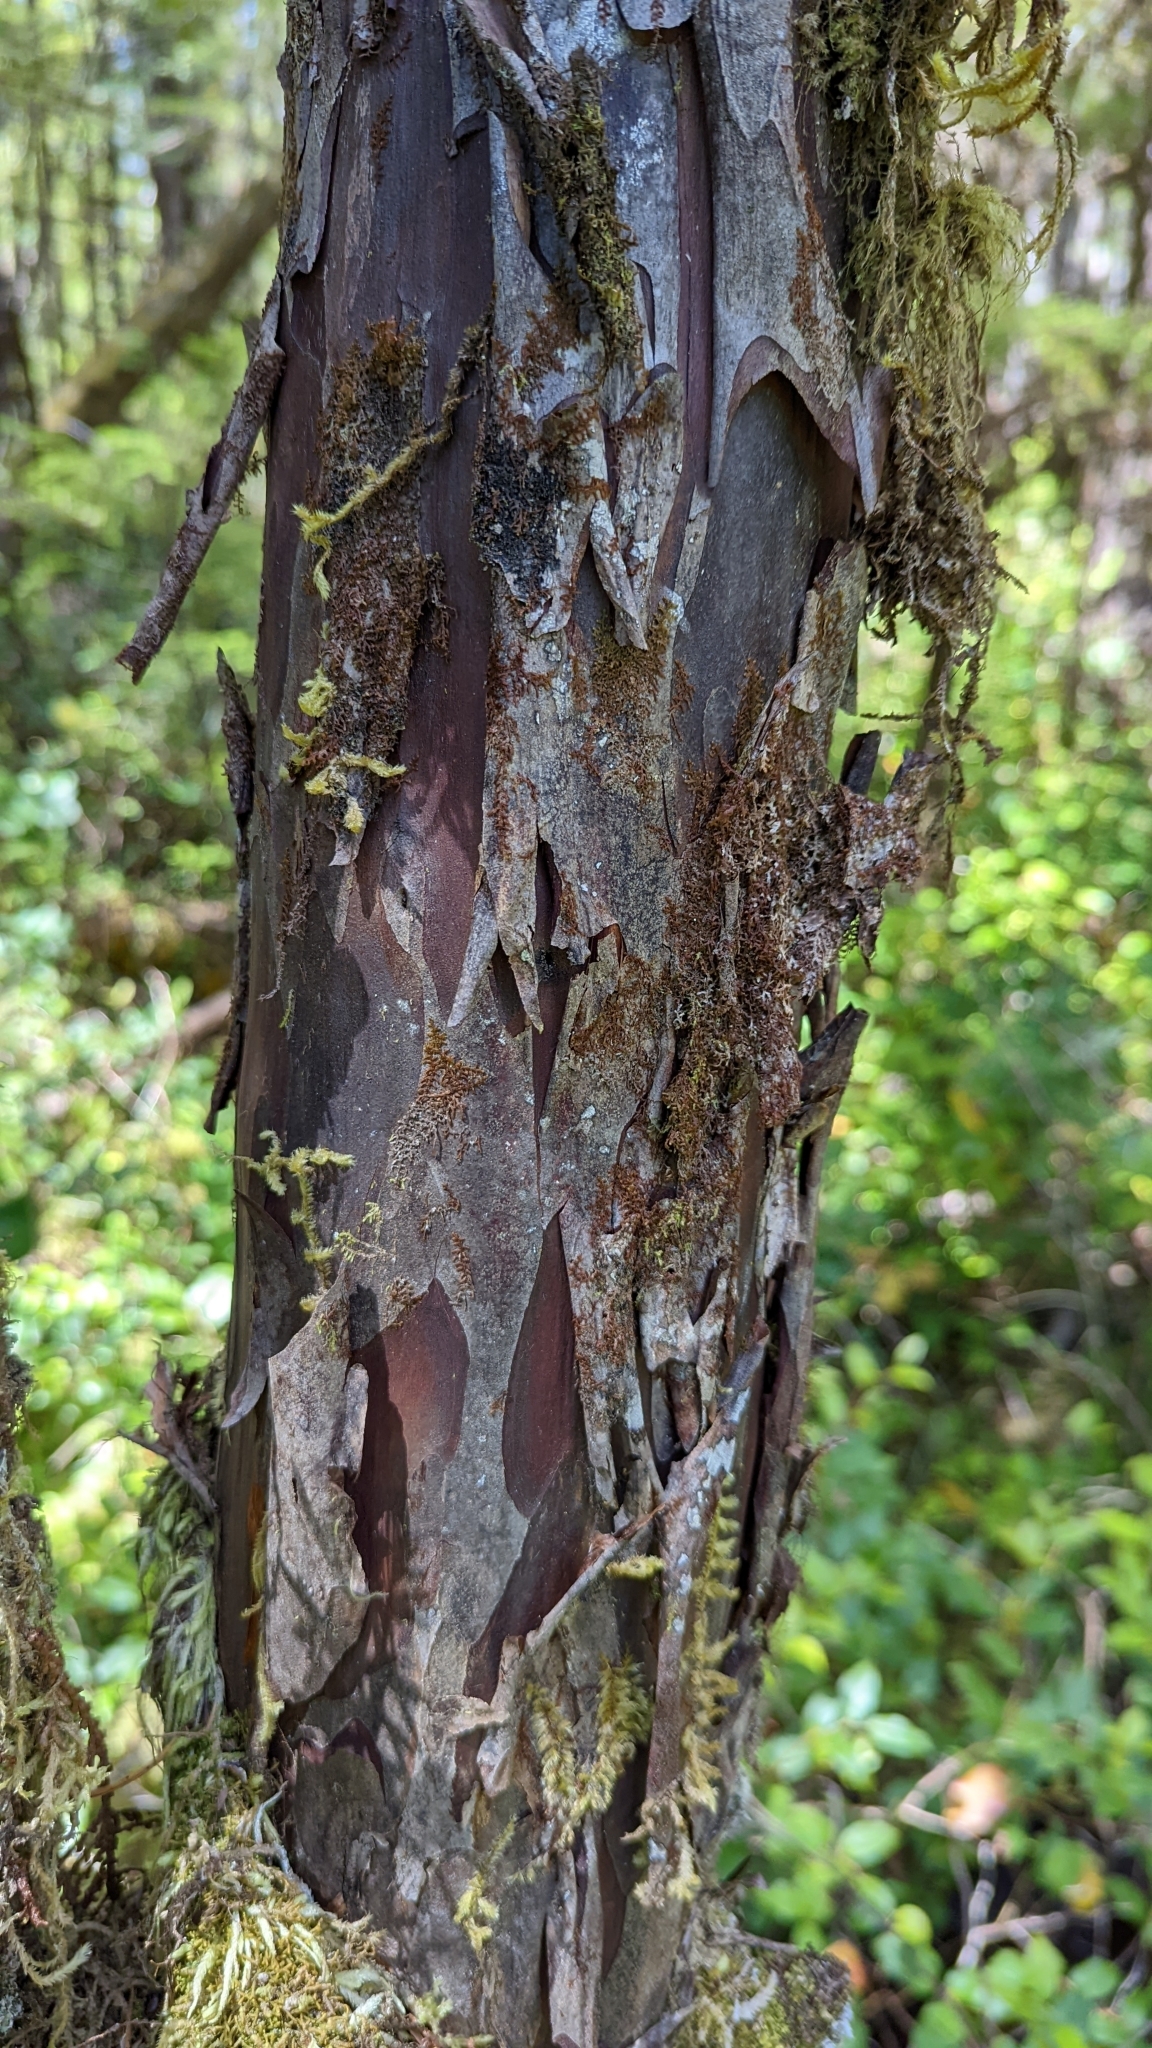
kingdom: Plantae
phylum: Tracheophyta
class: Pinopsida
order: Pinales
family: Taxaceae
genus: Taxus
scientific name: Taxus brevifolia
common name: Pacific yew
